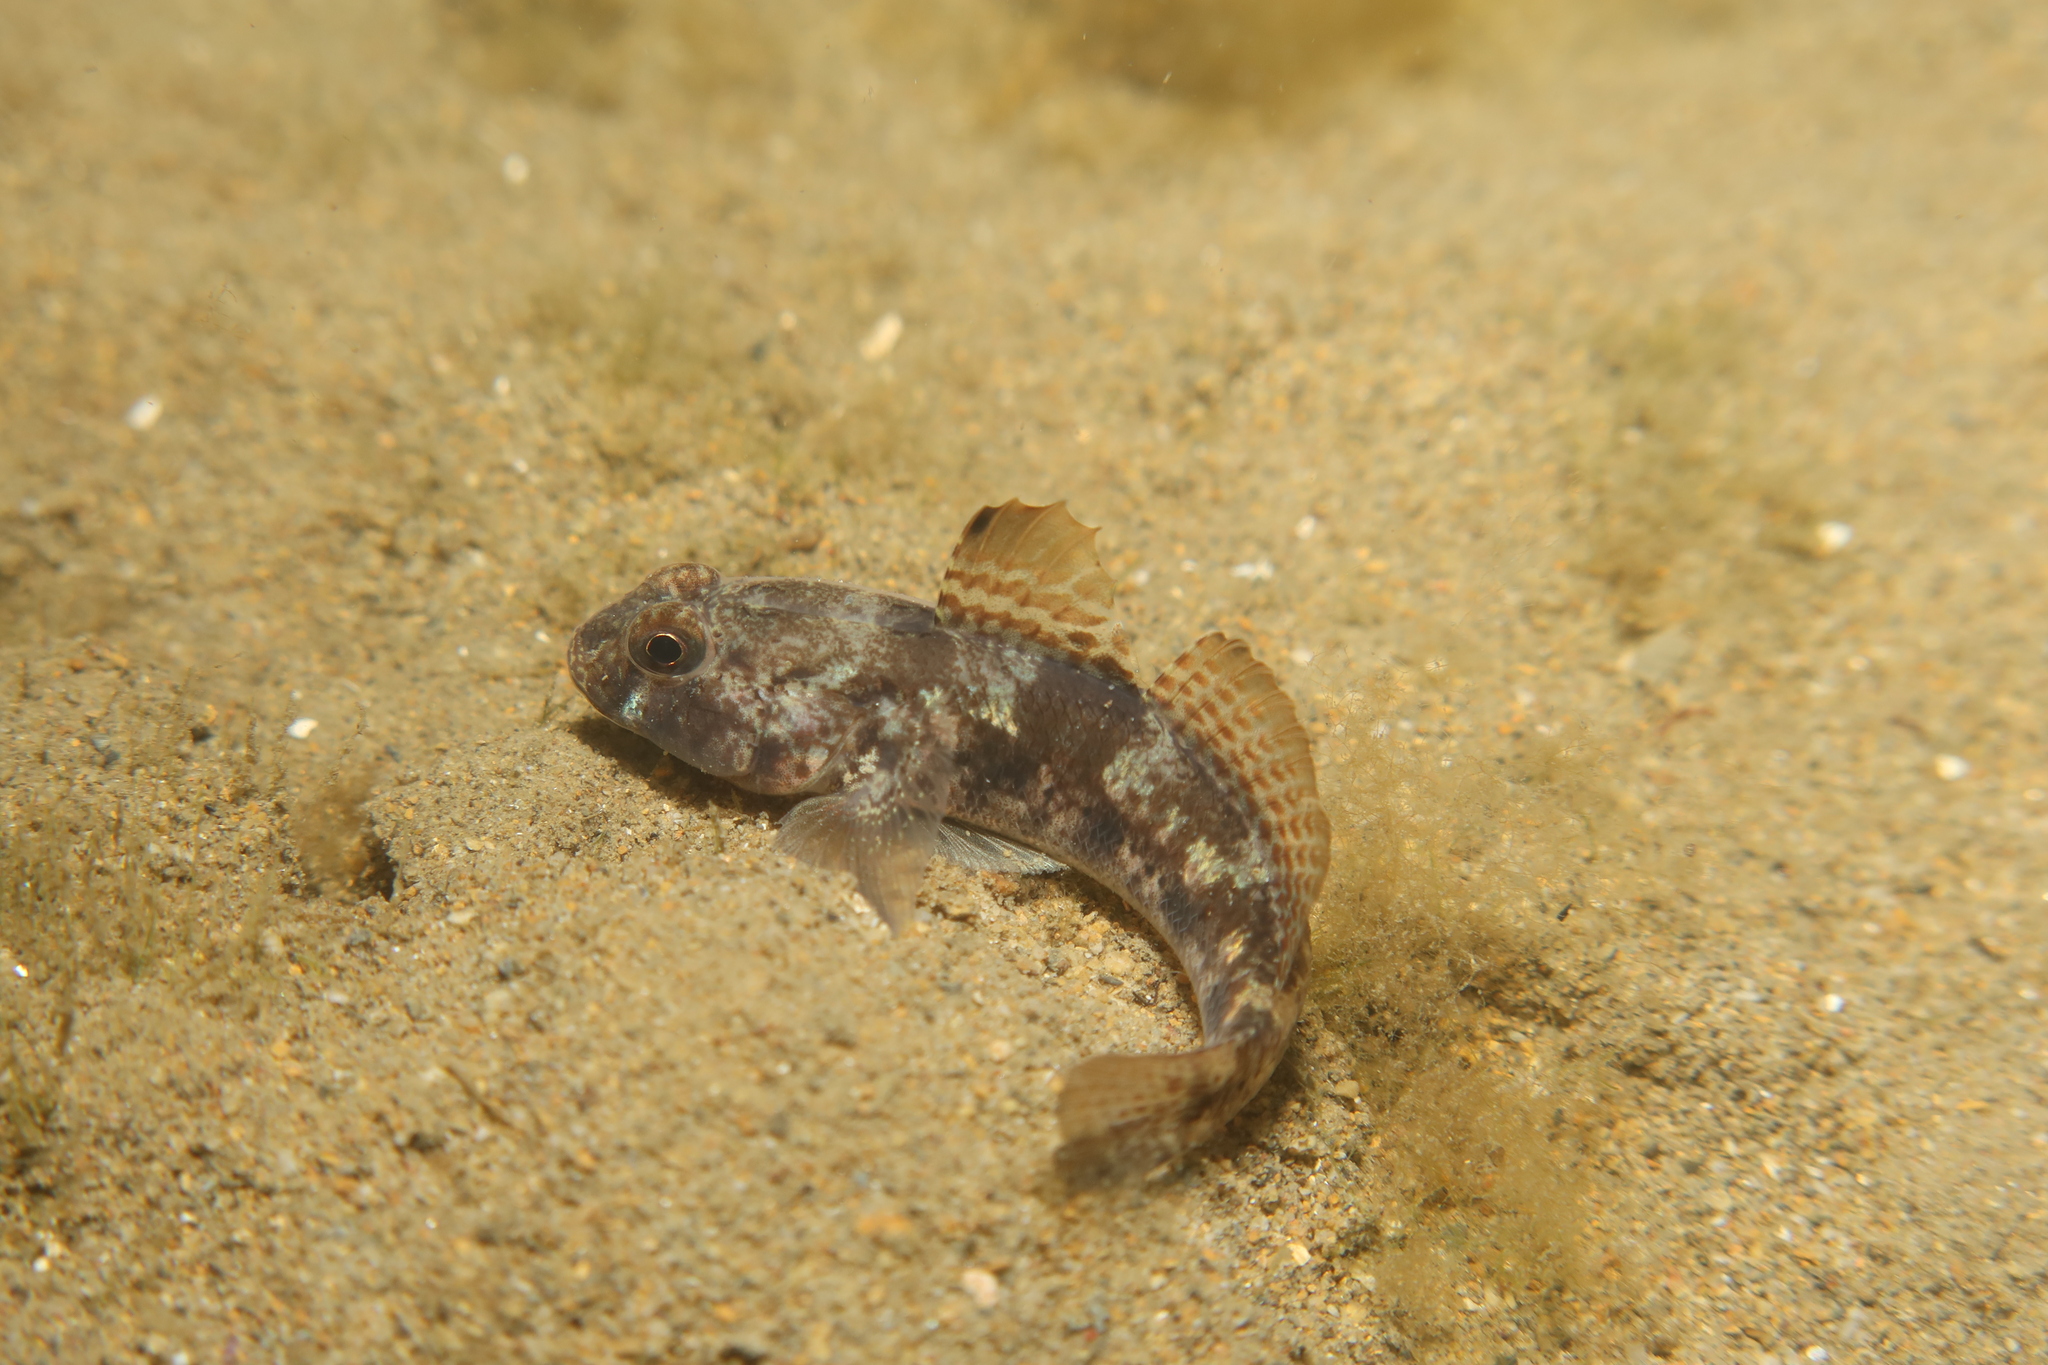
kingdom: Animalia
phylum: Chordata
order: Perciformes
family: Gobiidae
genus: Gobius
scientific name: Gobius niger
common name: Black goby
